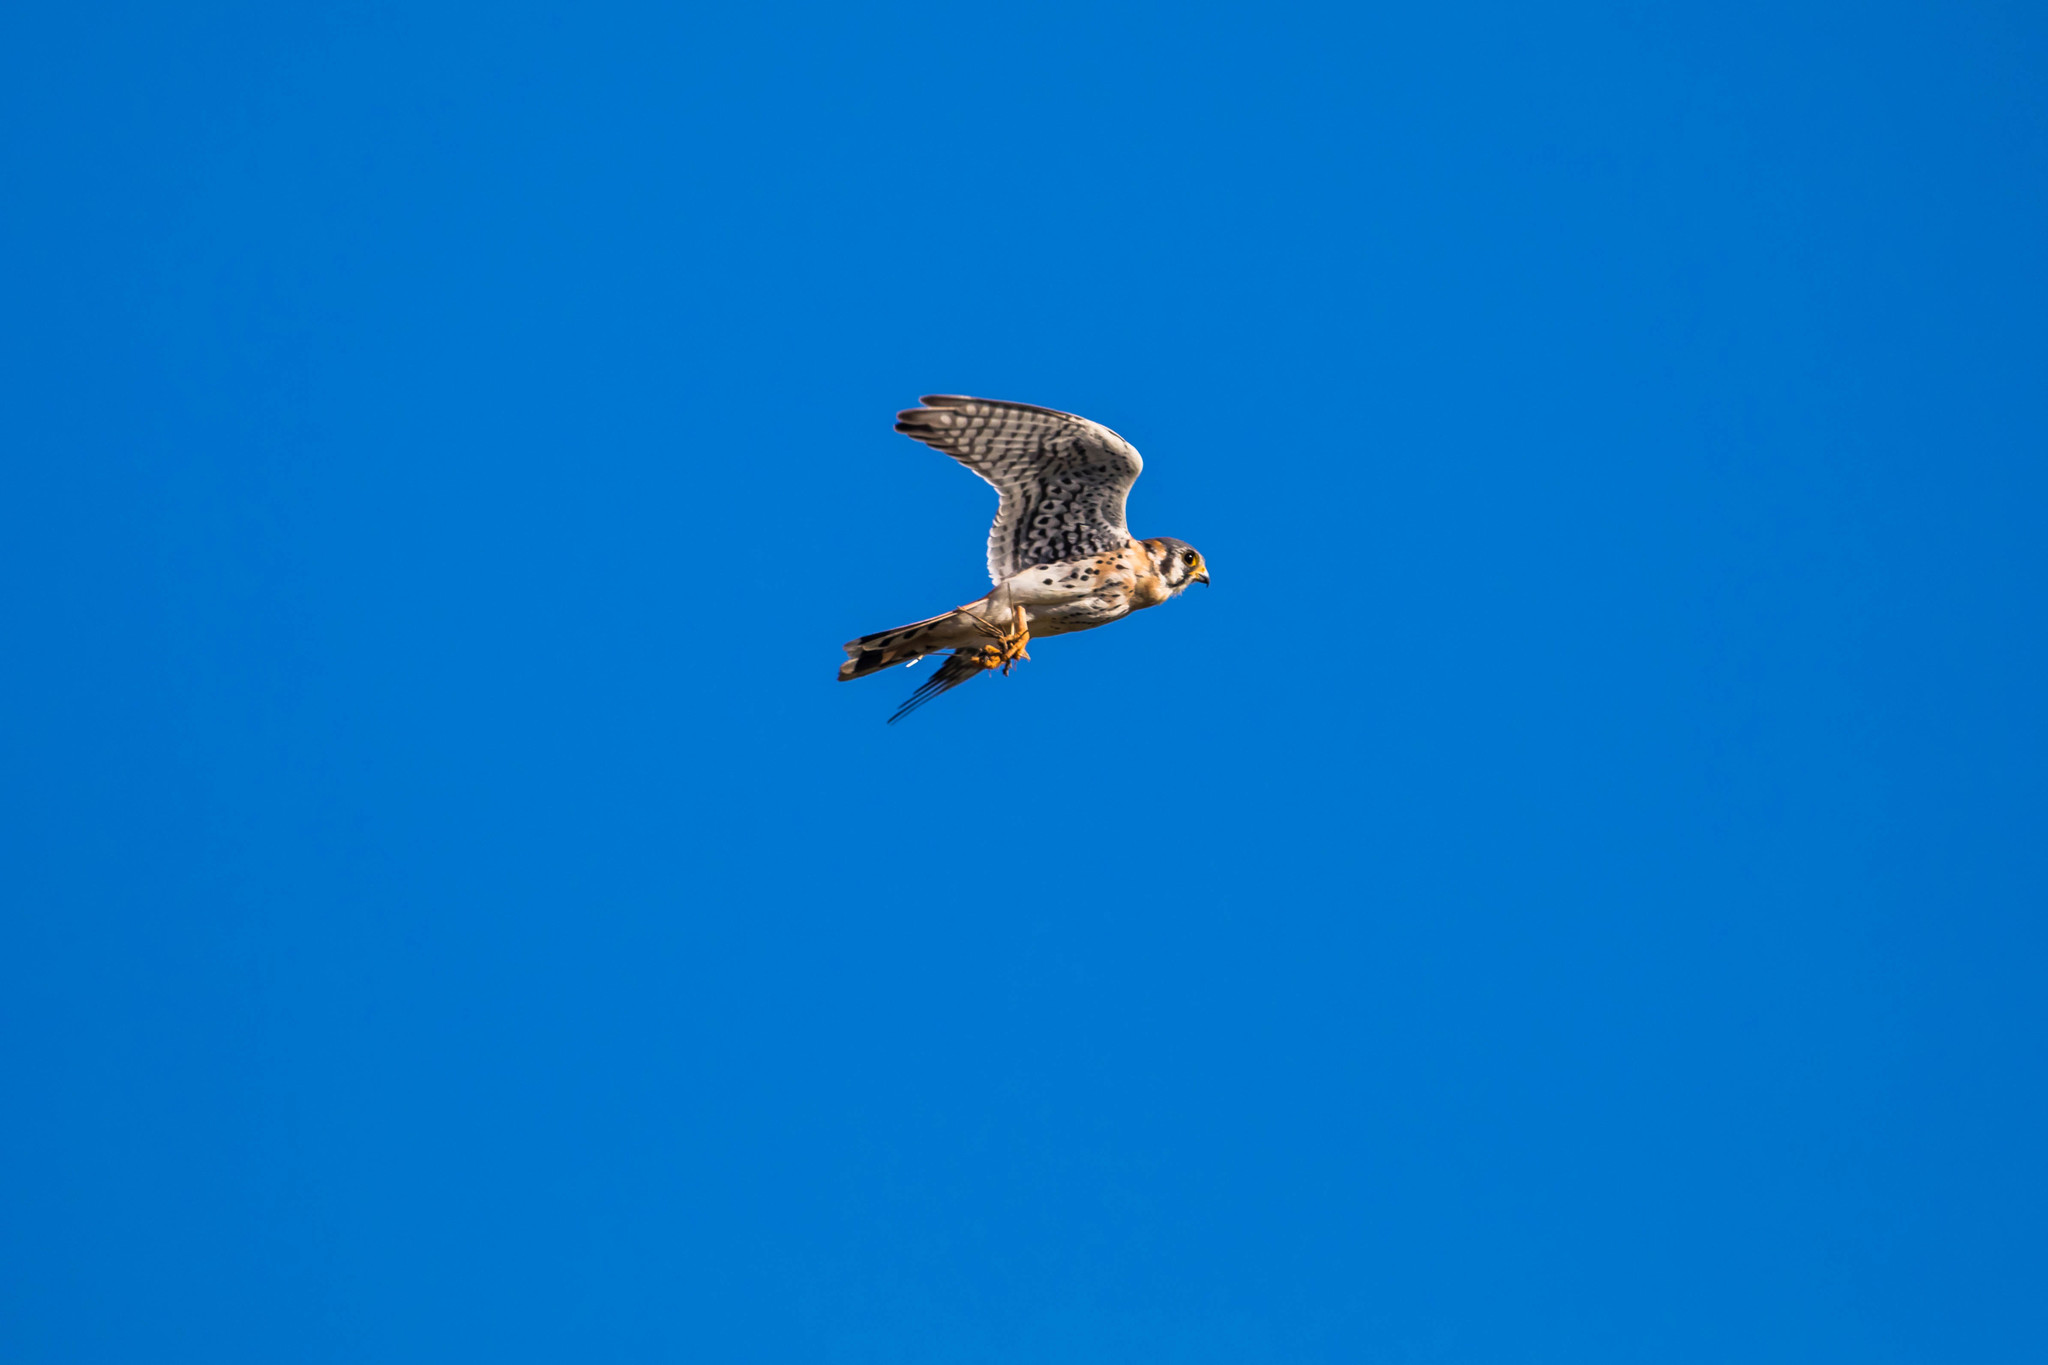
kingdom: Animalia
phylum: Chordata
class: Aves
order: Falconiformes
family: Falconidae
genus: Falco
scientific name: Falco sparverius
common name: American kestrel
